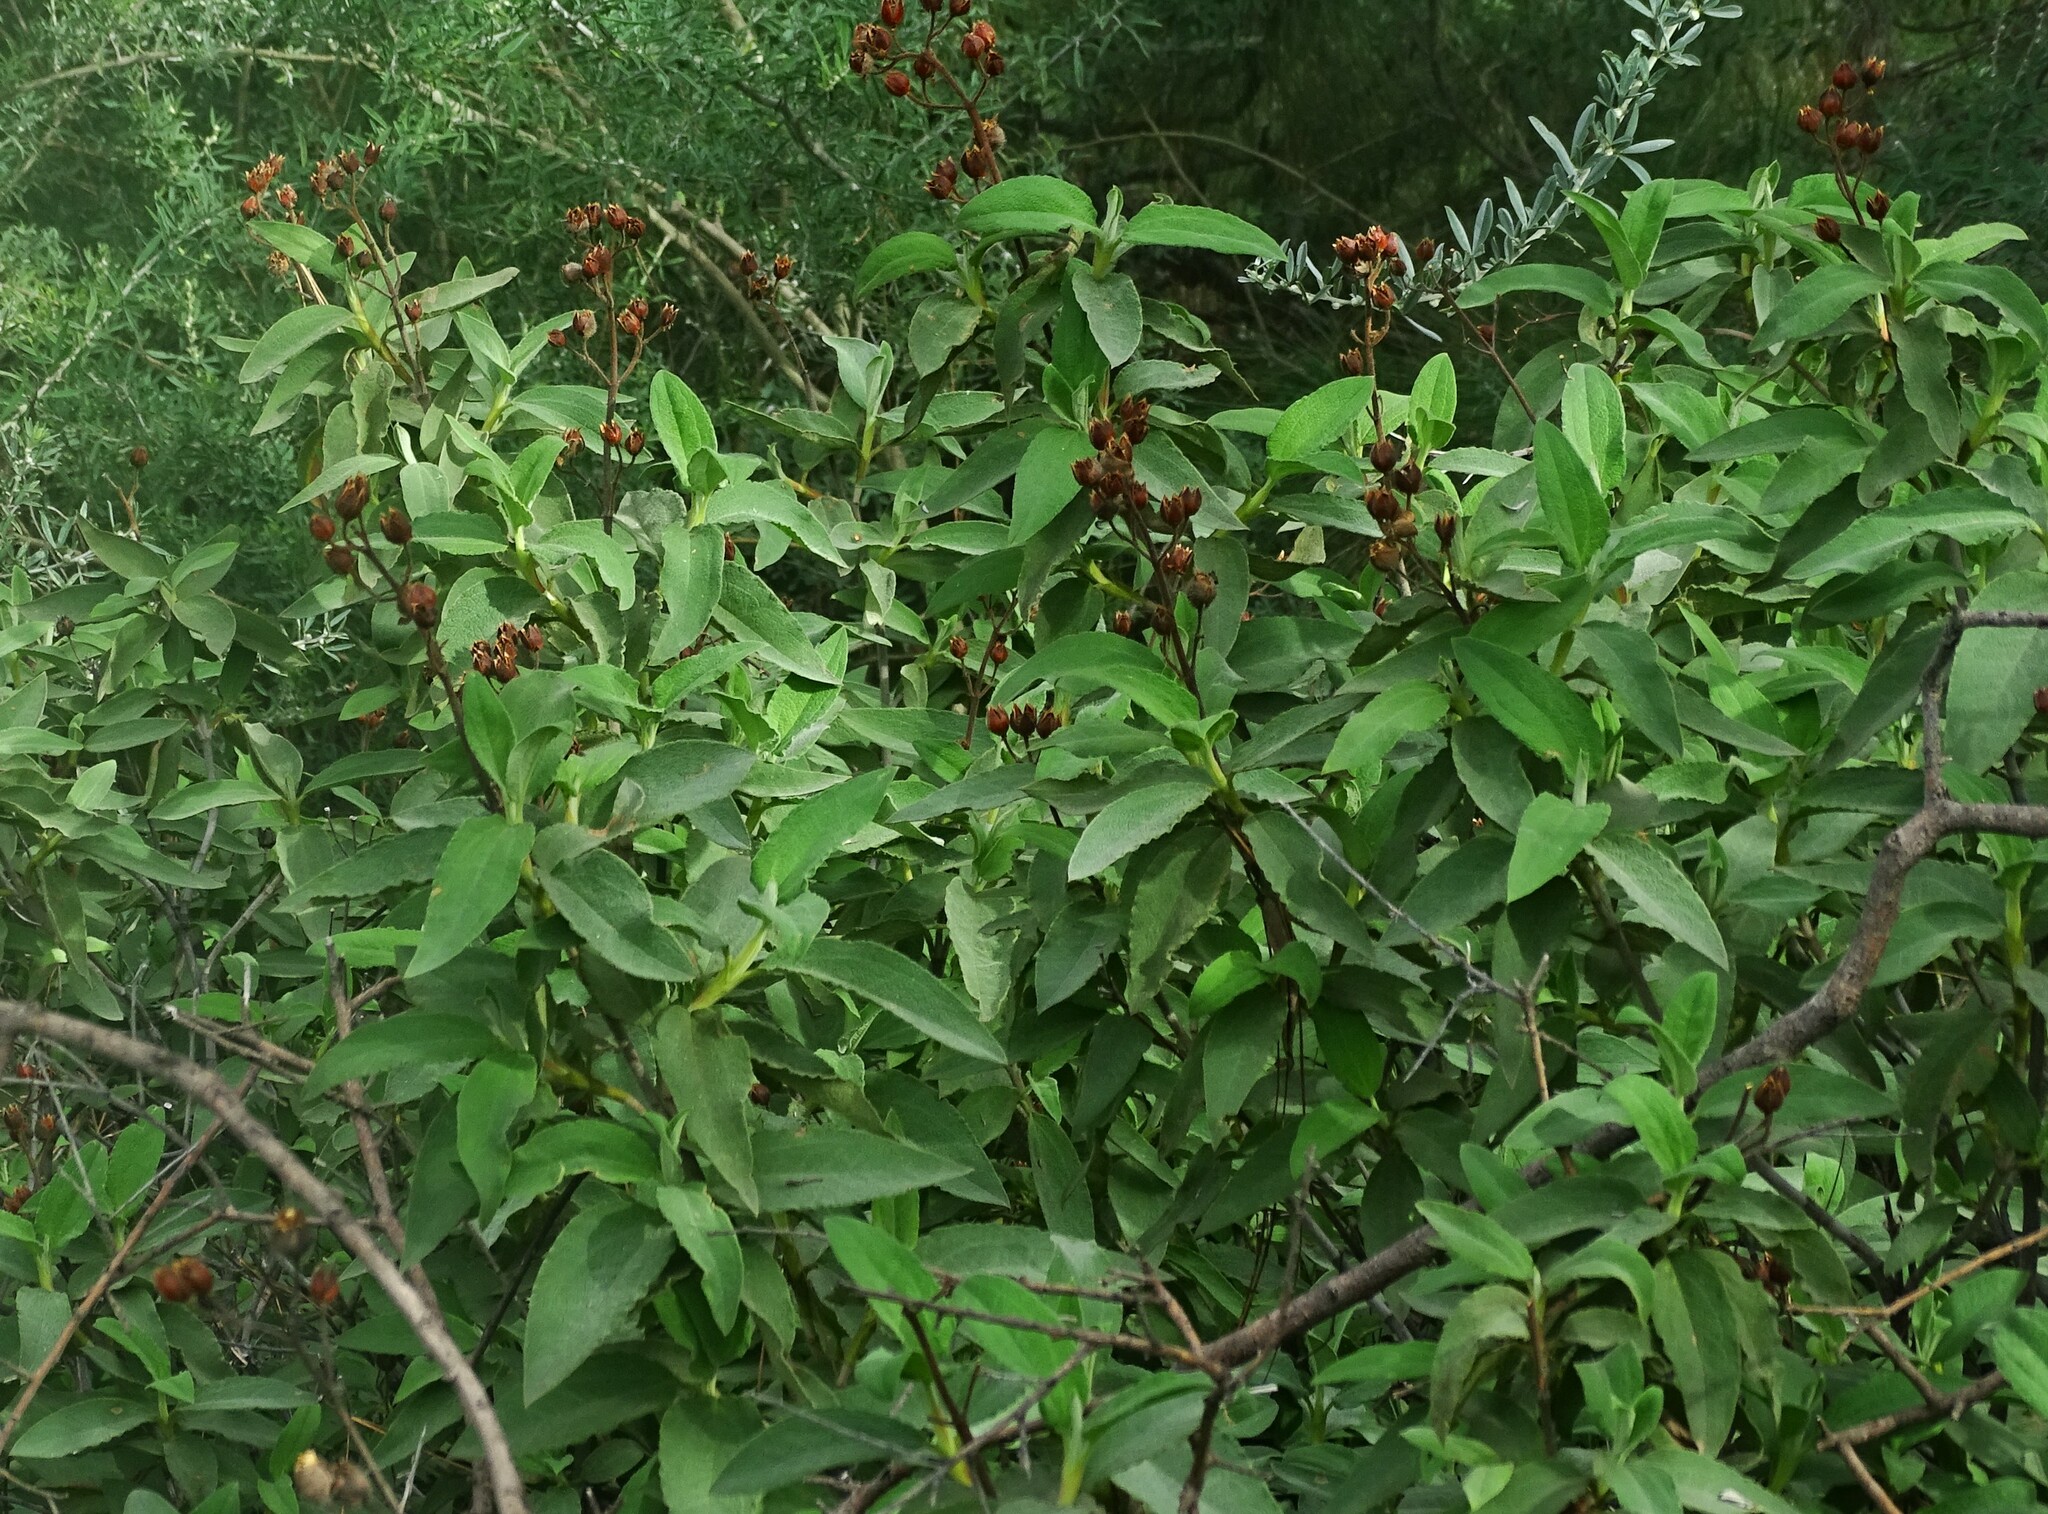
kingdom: Plantae
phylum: Tracheophyta
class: Magnoliopsida
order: Malvales
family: Cistaceae
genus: Cistus
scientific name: Cistus symphytifolius
